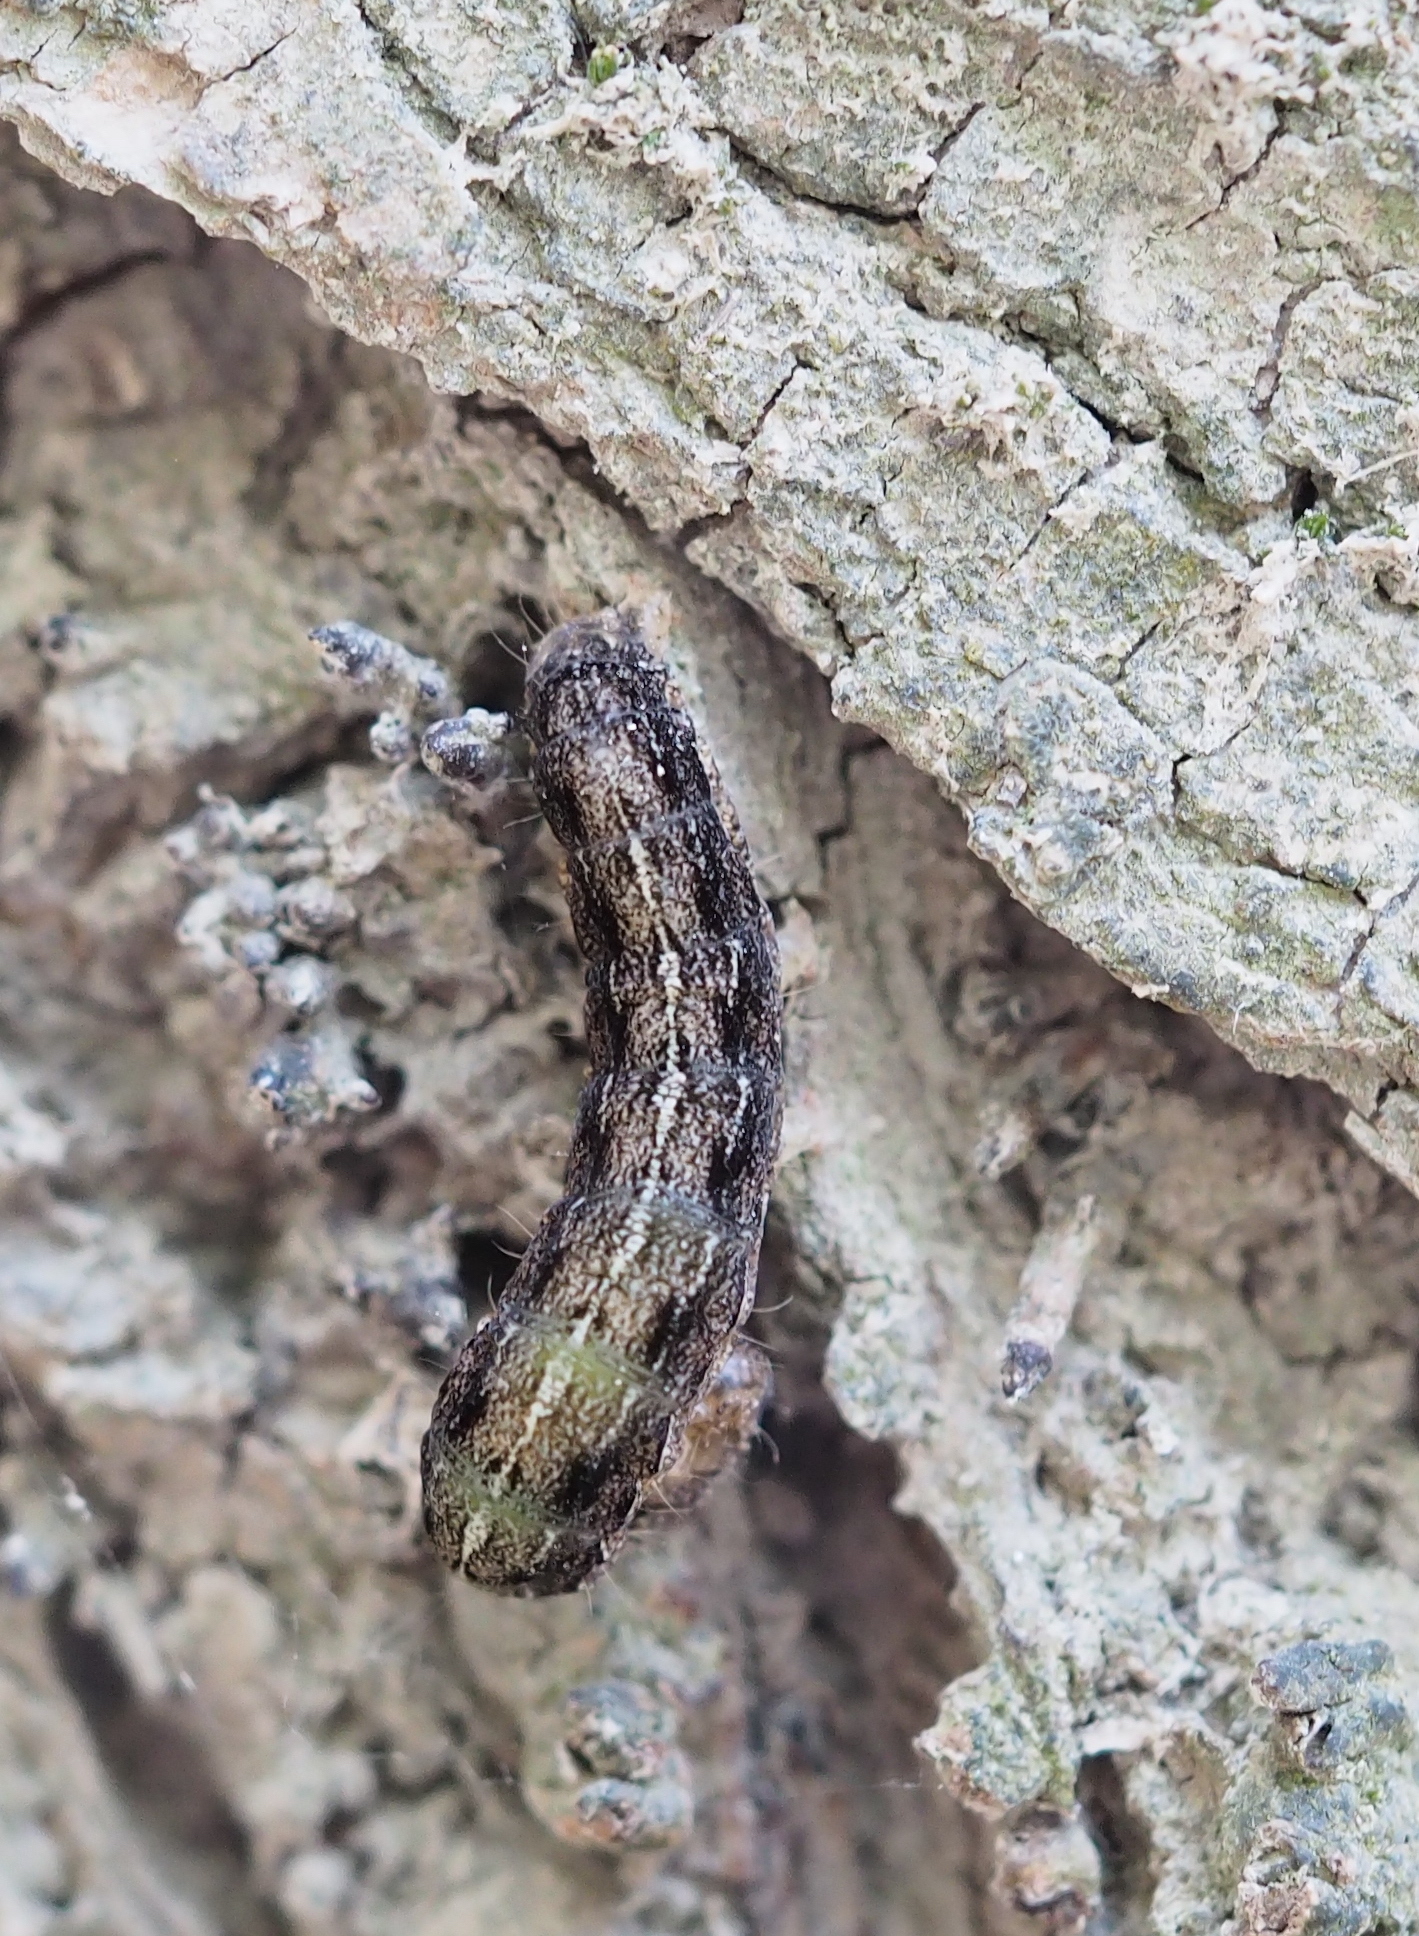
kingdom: Animalia
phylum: Arthropoda
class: Insecta
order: Lepidoptera
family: Noctuidae
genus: Apterogenum
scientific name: Apterogenum ypsillon
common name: Dingy shears
